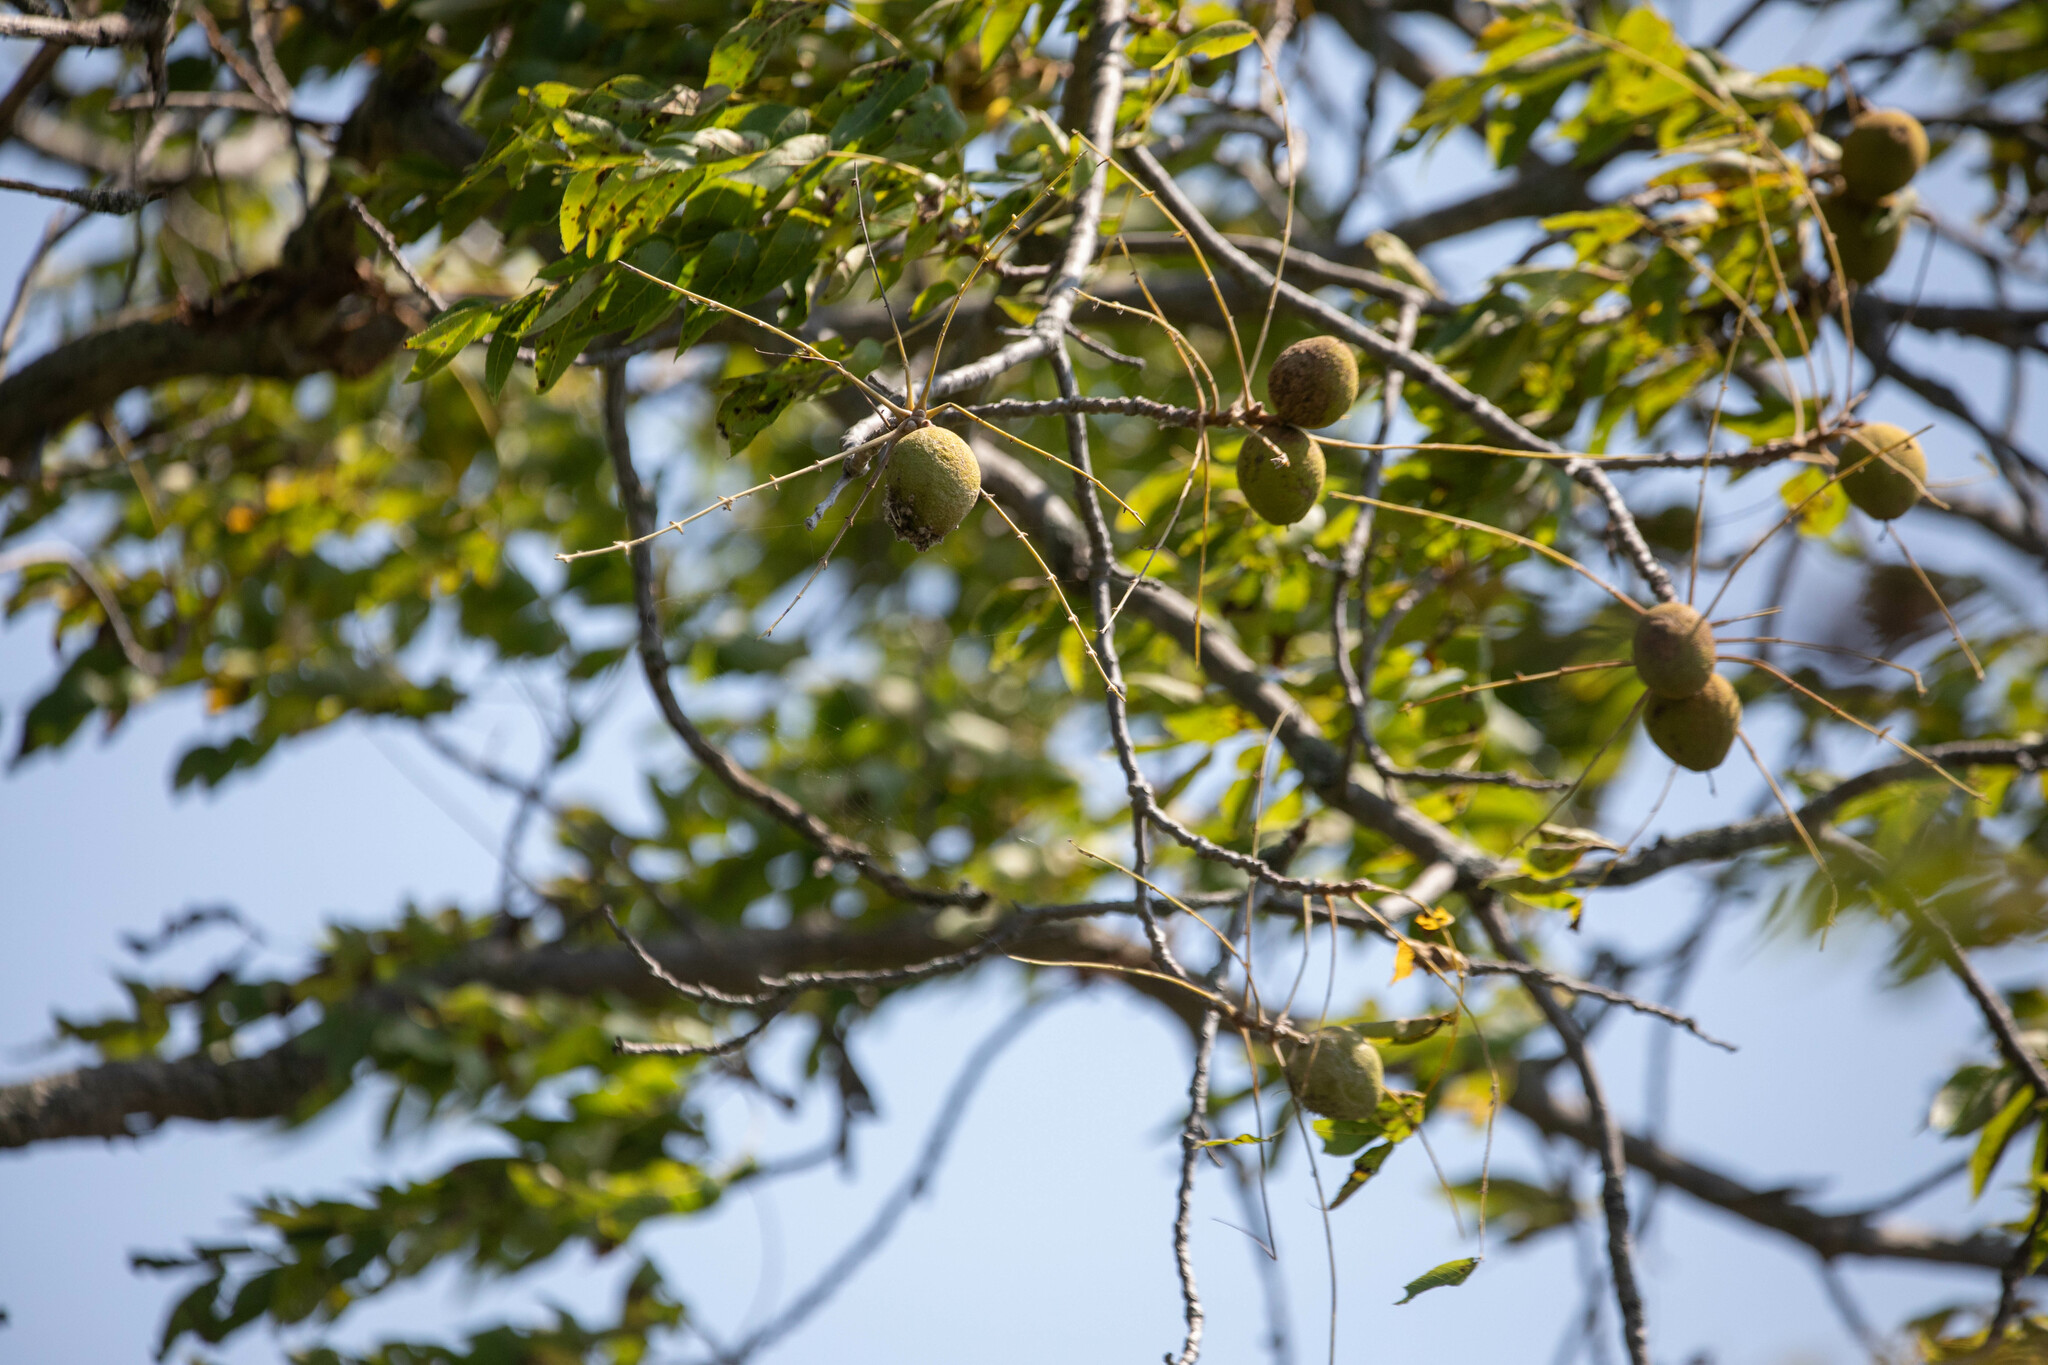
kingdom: Plantae
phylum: Tracheophyta
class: Magnoliopsida
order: Fagales
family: Juglandaceae
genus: Juglans
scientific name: Juglans nigra
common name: Black walnut
